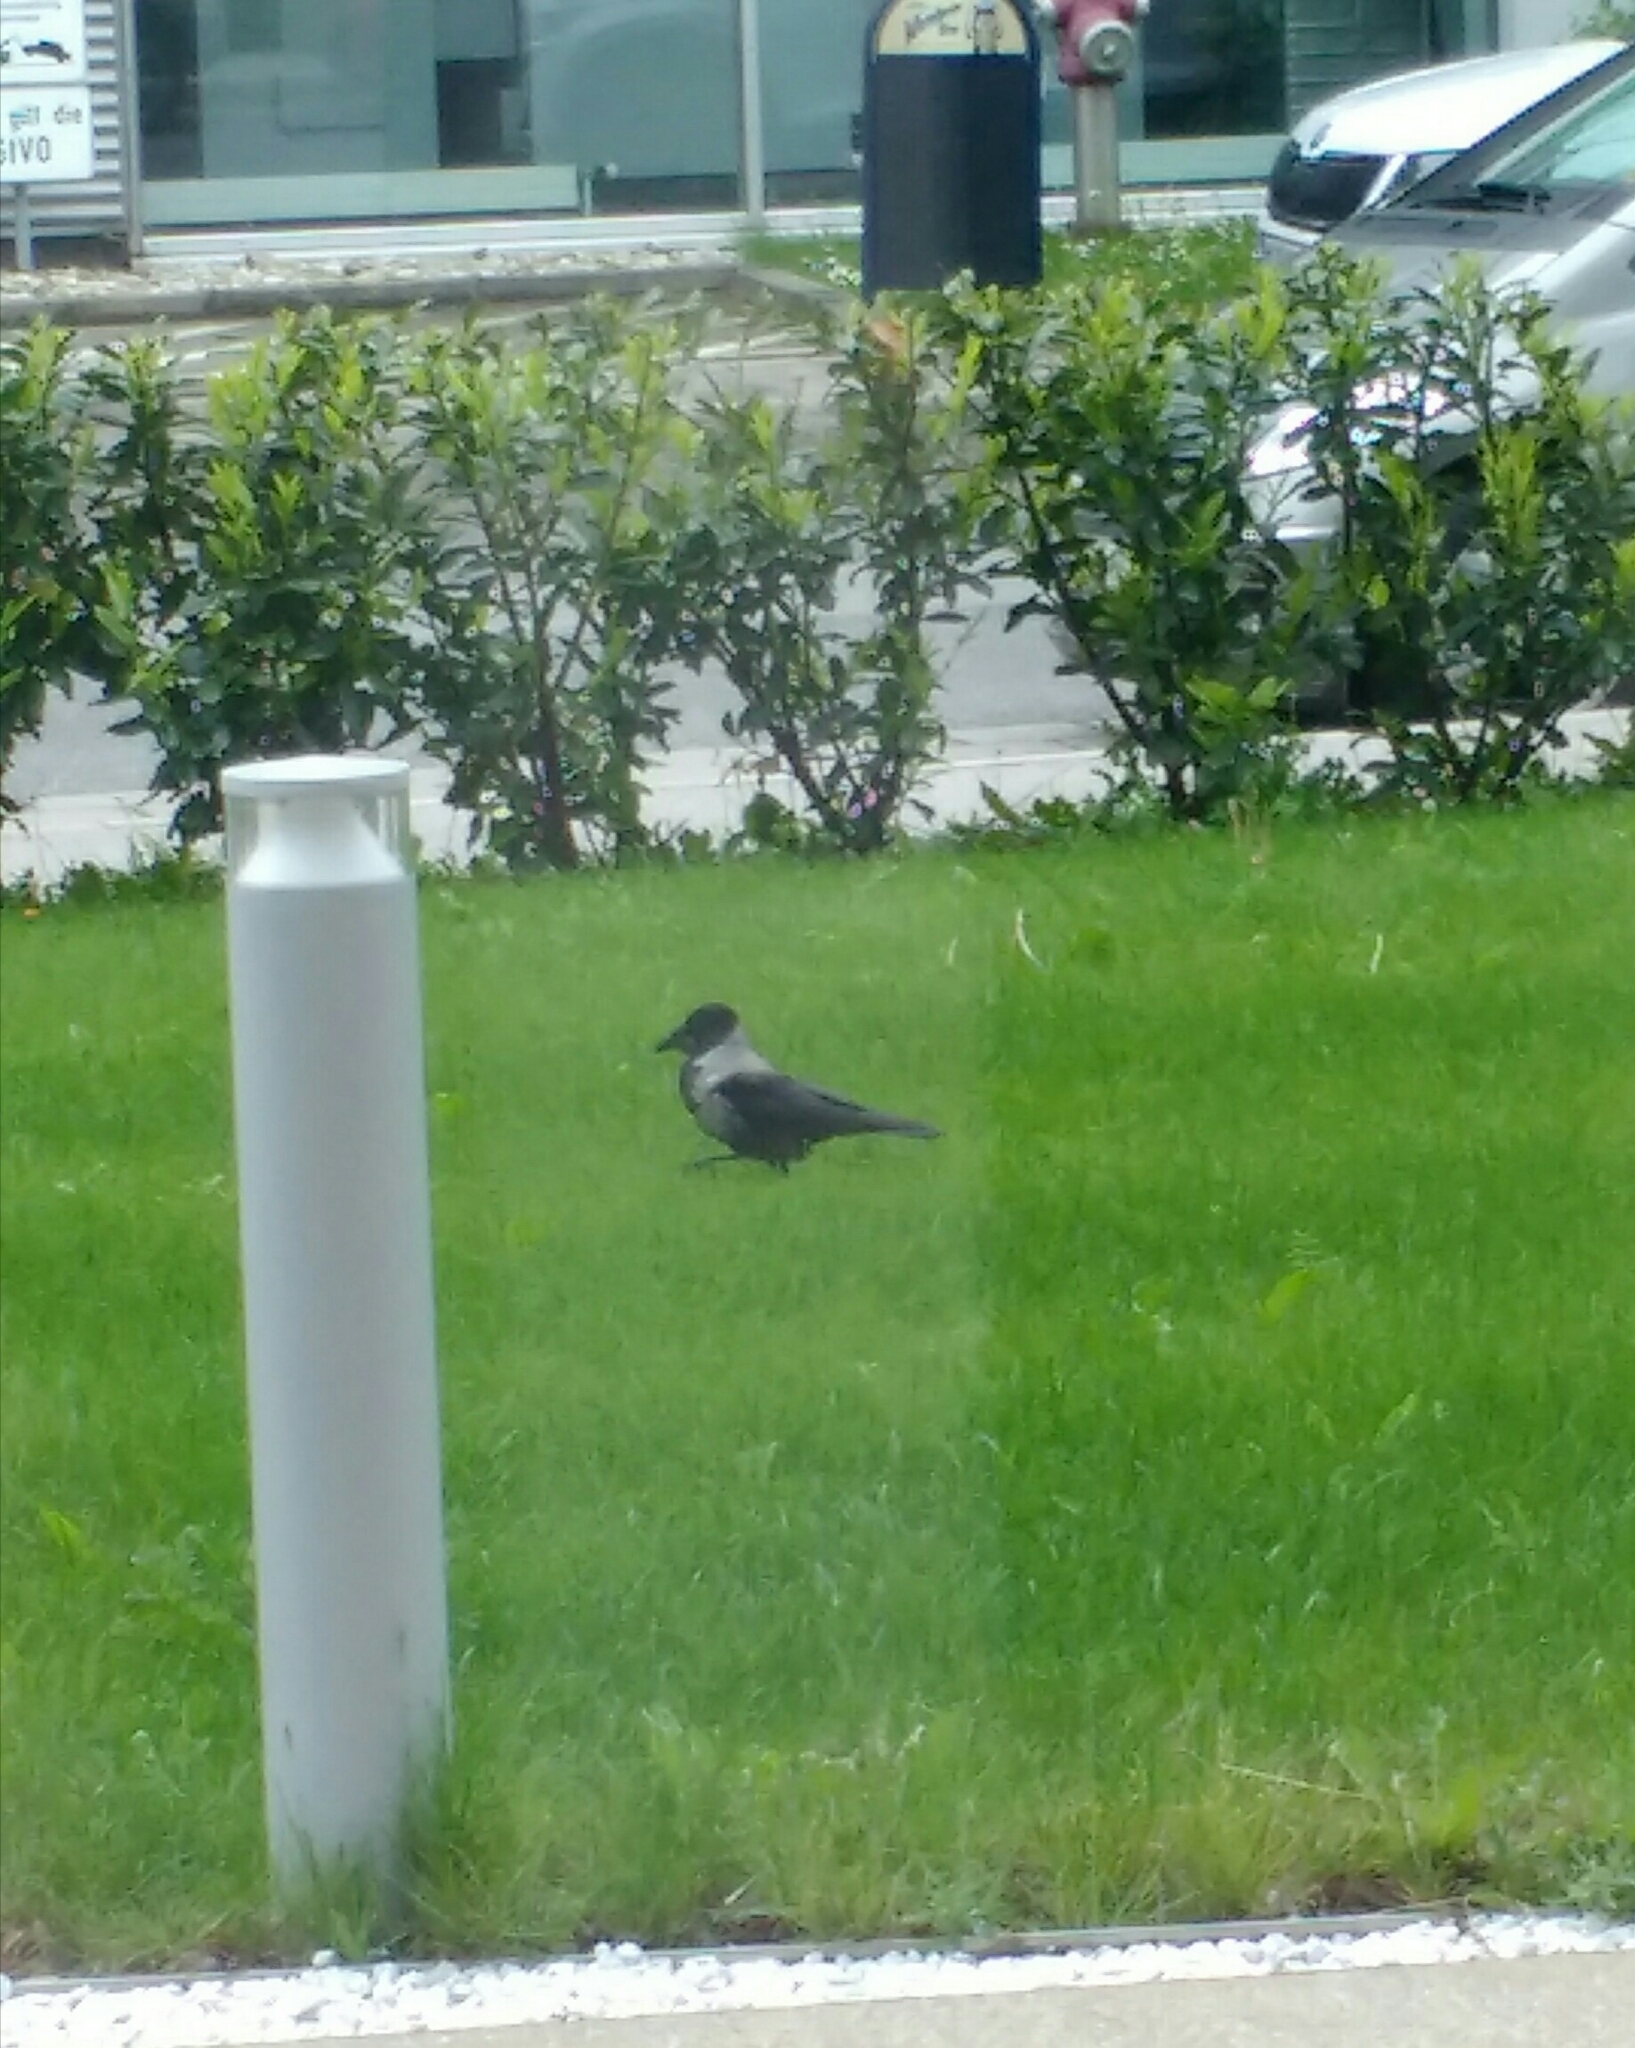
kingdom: Animalia
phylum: Chordata
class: Aves
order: Passeriformes
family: Corvidae
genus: Corvus
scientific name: Corvus cornix
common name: Hooded crow
